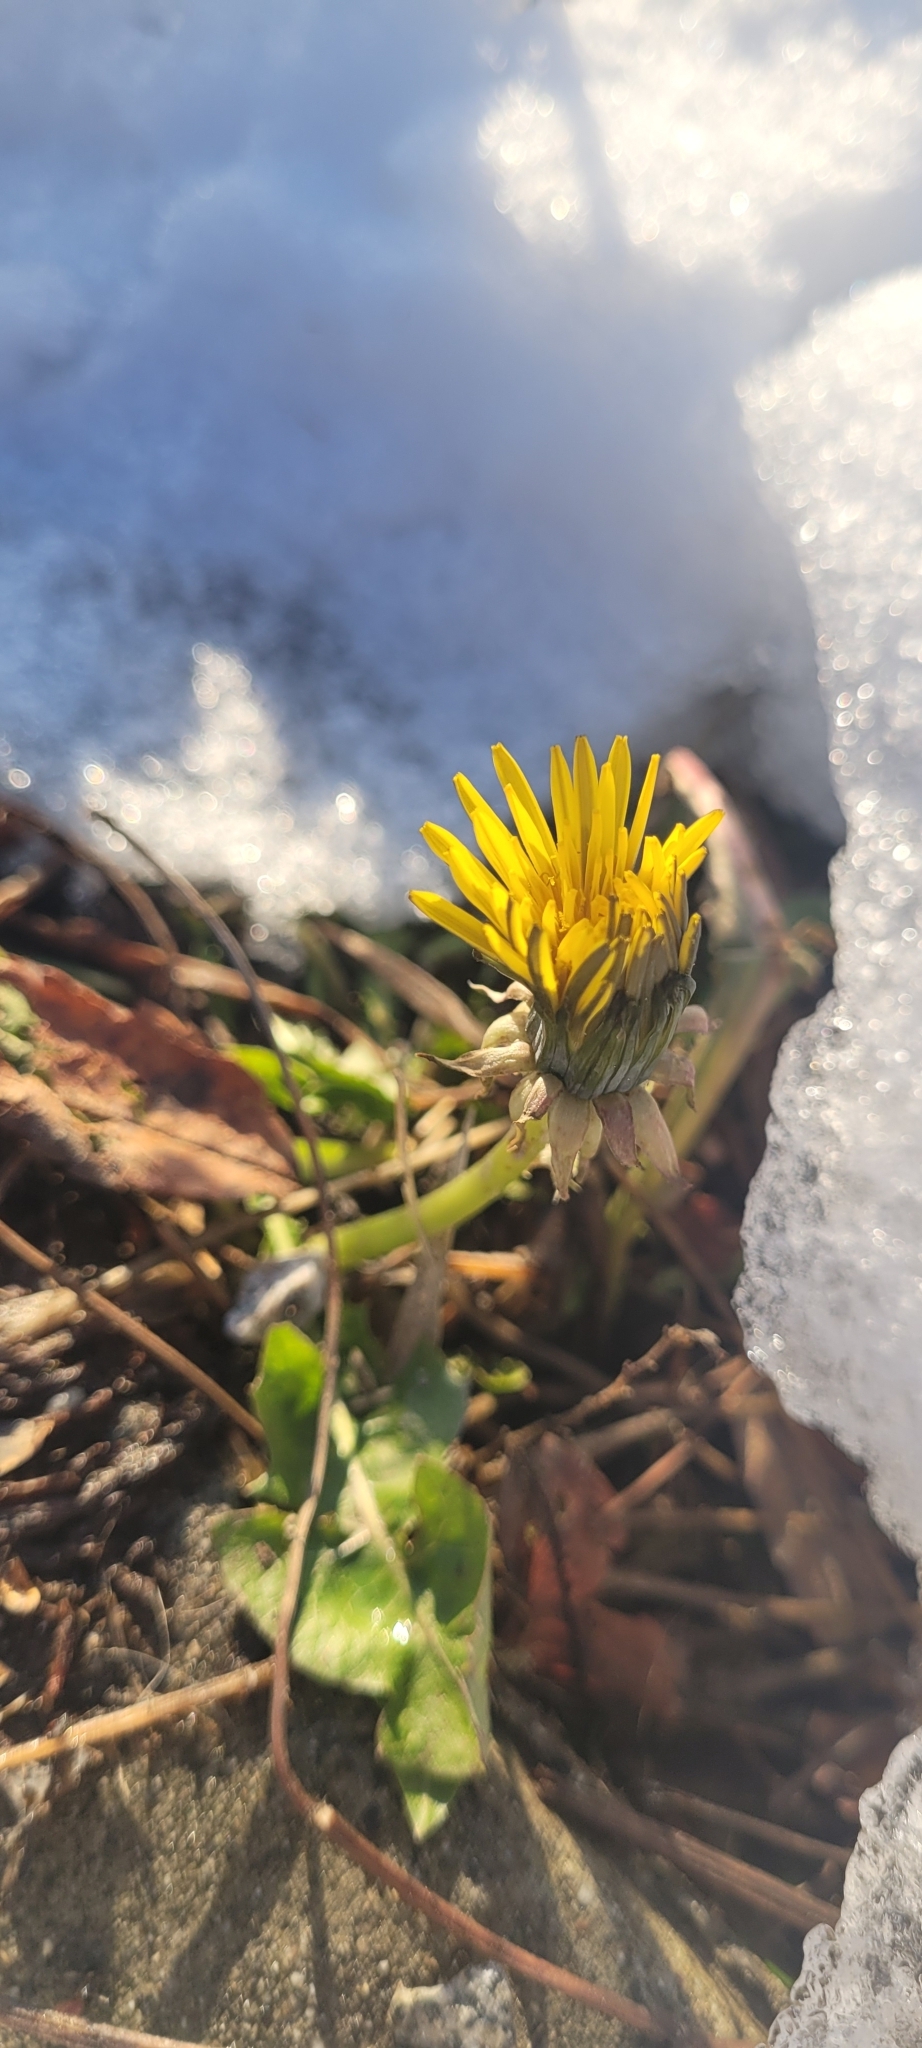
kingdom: Plantae
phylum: Tracheophyta
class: Magnoliopsida
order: Asterales
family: Asteraceae
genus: Taraxacum
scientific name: Taraxacum officinale
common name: Common dandelion
